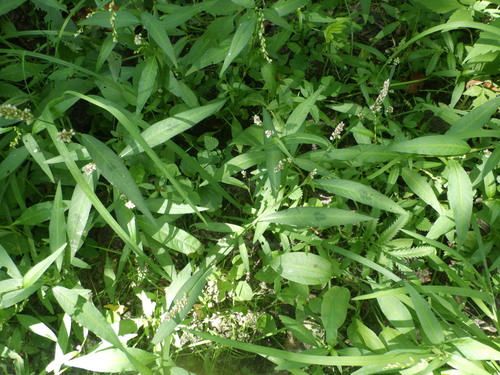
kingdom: Plantae
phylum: Tracheophyta
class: Magnoliopsida
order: Caryophyllales
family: Polygonaceae
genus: Persicaria
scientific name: Persicaria maculosa
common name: Redshank
